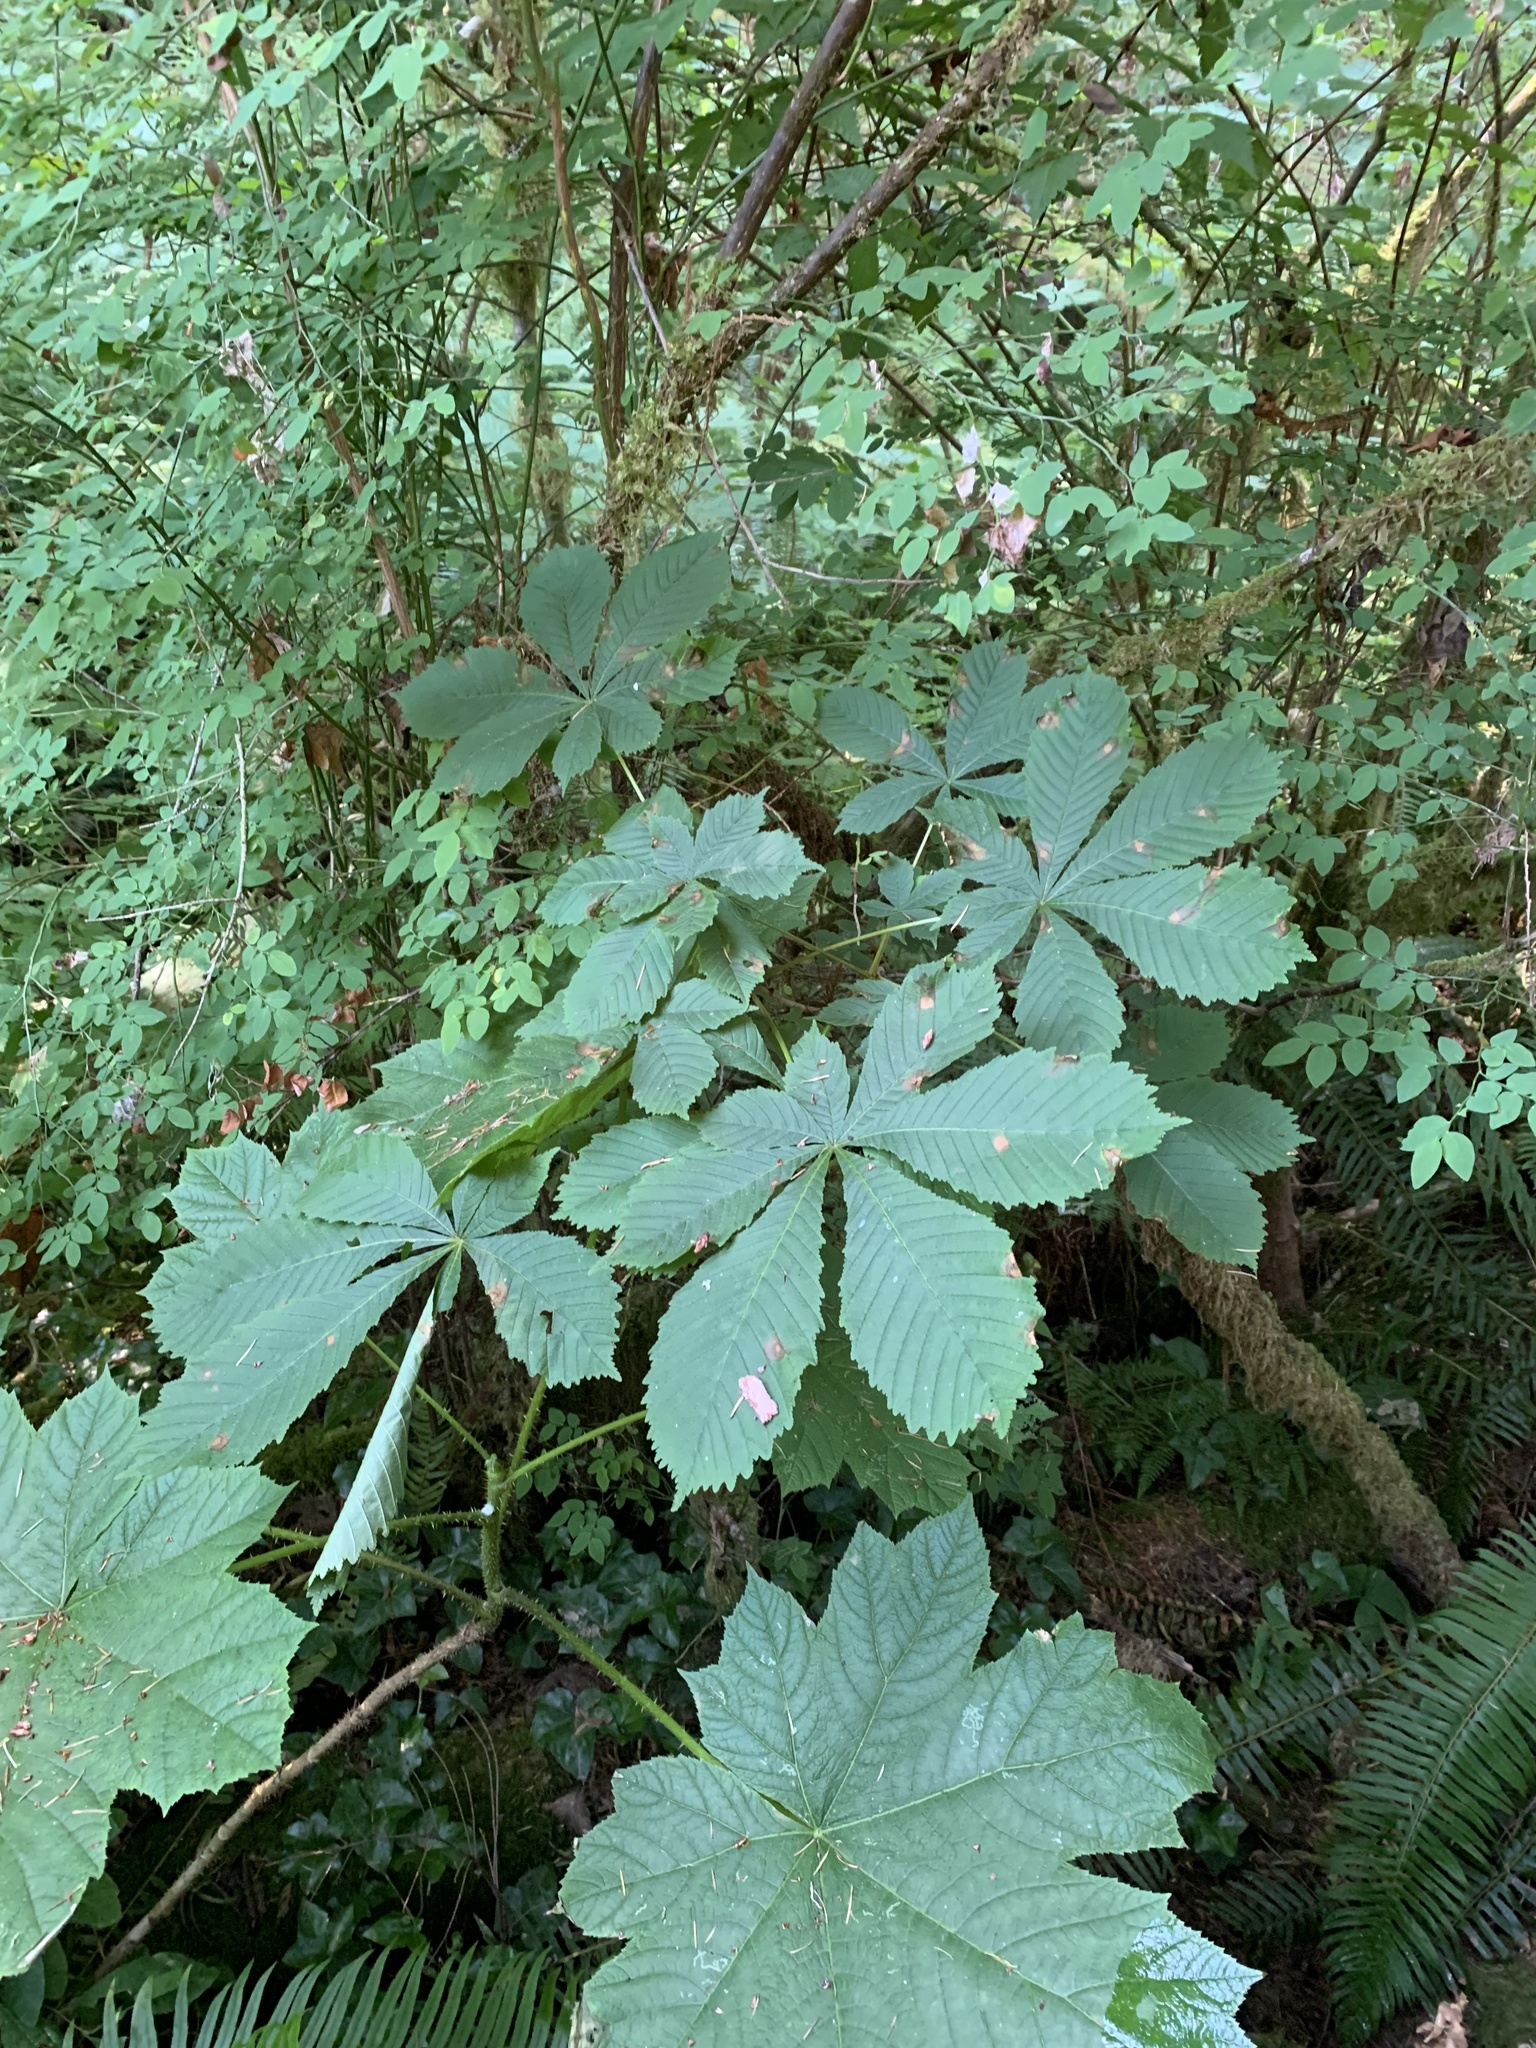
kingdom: Plantae
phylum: Tracheophyta
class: Magnoliopsida
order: Sapindales
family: Sapindaceae
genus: Aesculus
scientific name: Aesculus hippocastanum
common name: Horse-chestnut
